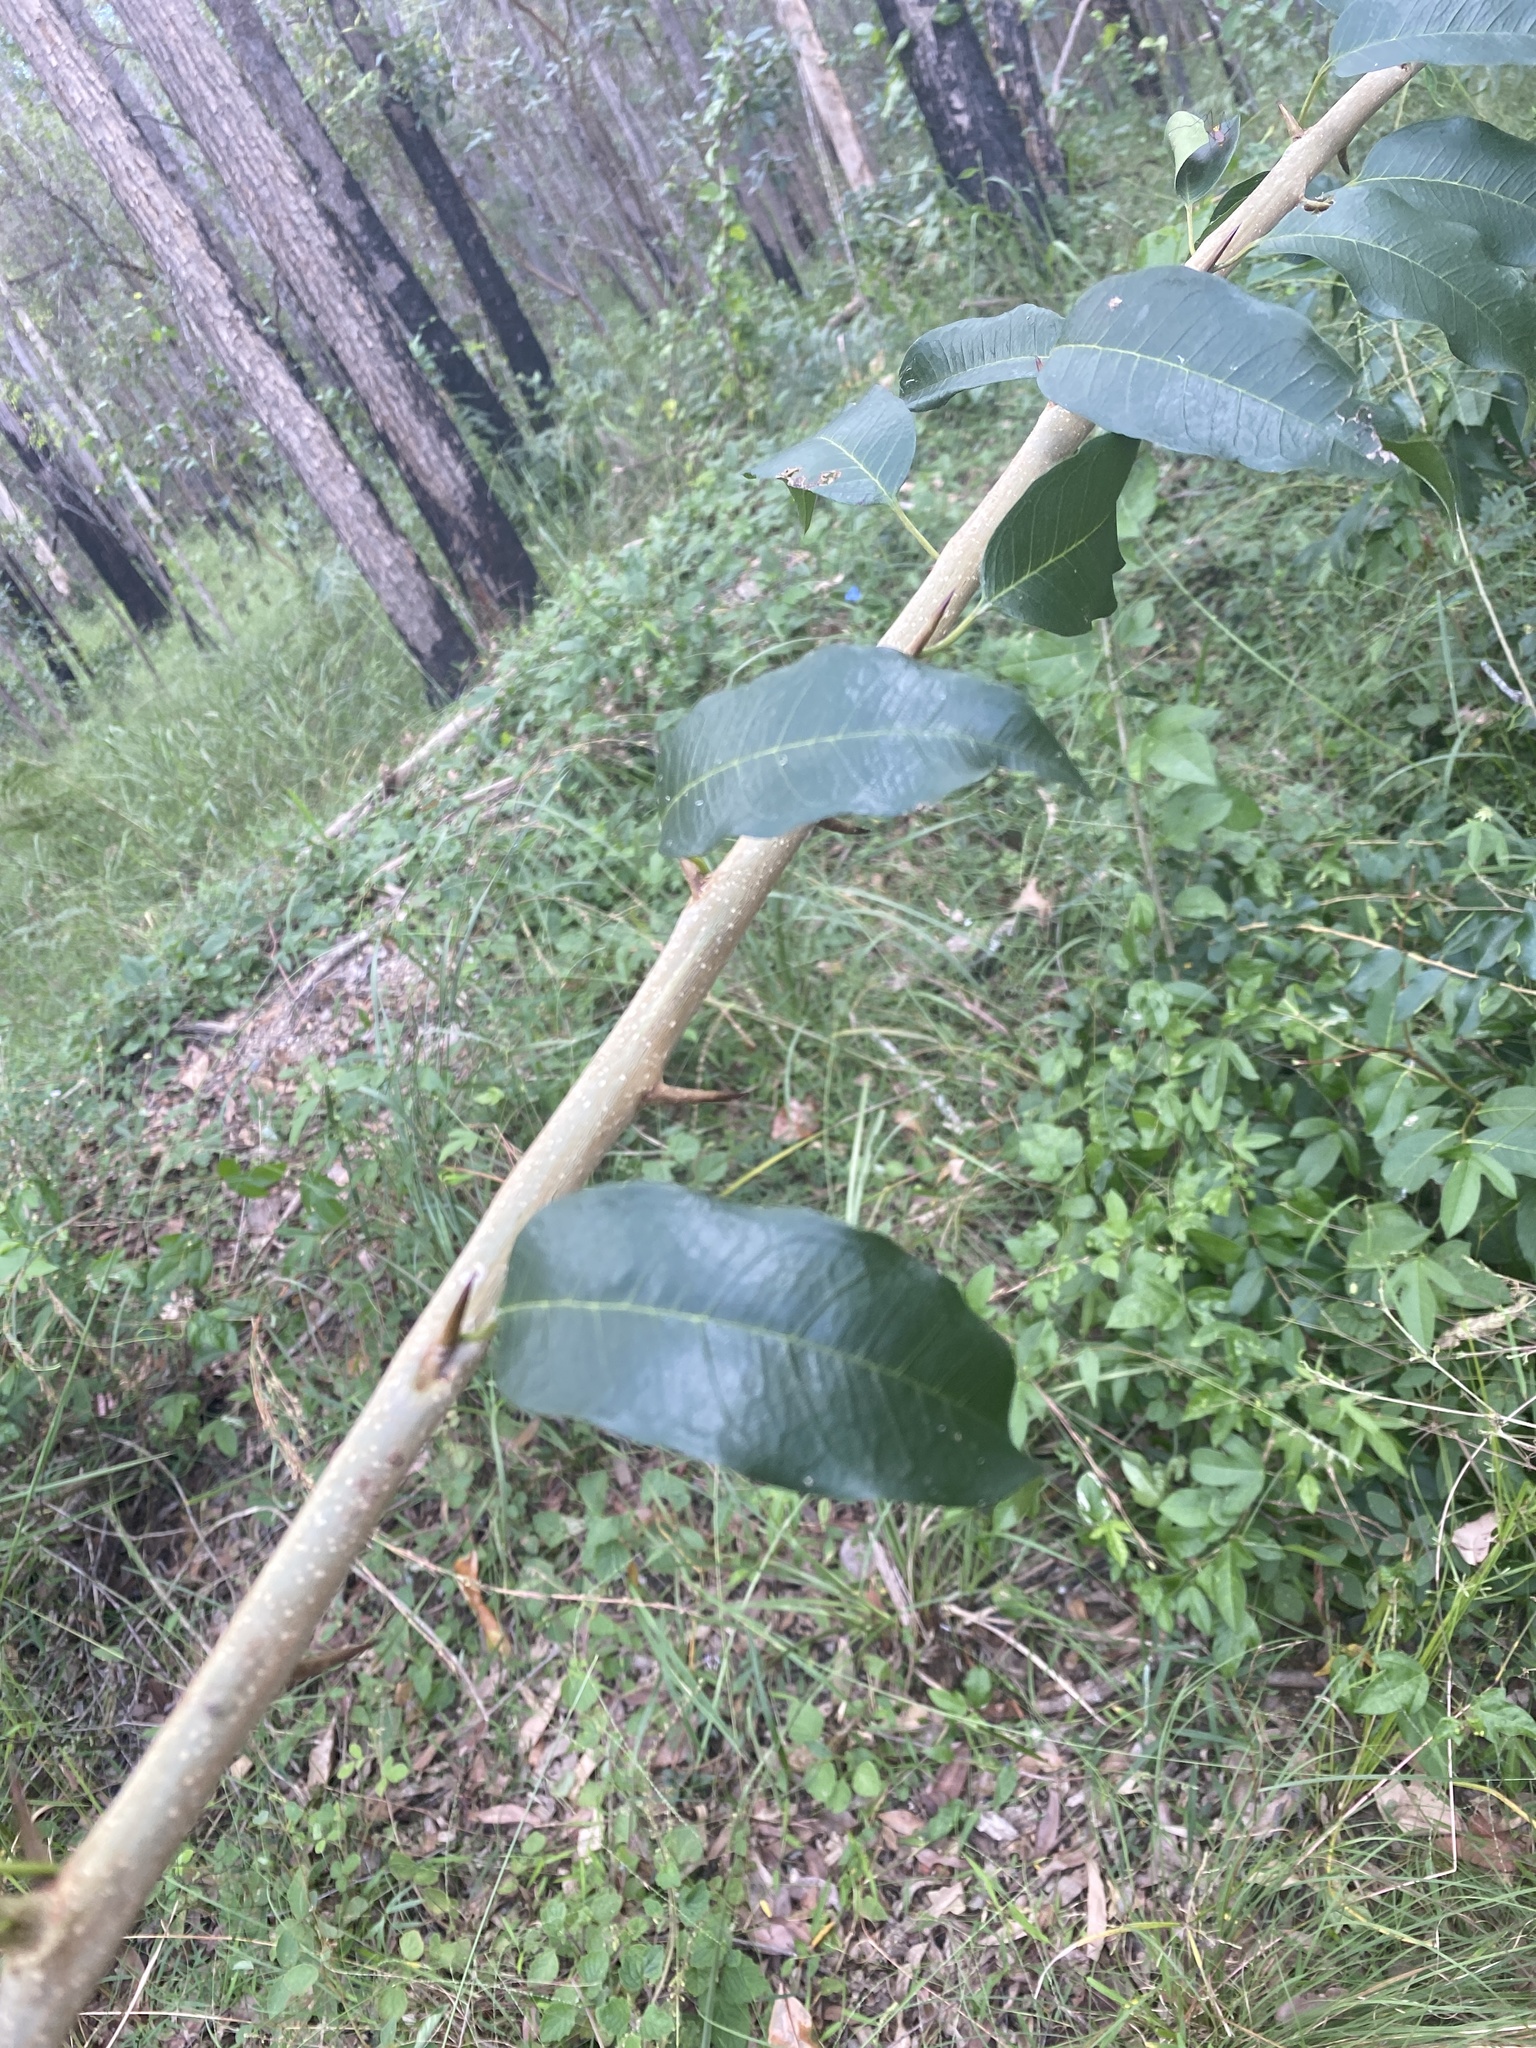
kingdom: Plantae
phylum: Tracheophyta
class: Magnoliopsida
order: Rosales
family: Moraceae
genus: Maclura
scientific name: Maclura cochinchinensis
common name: Cockspurthorn
